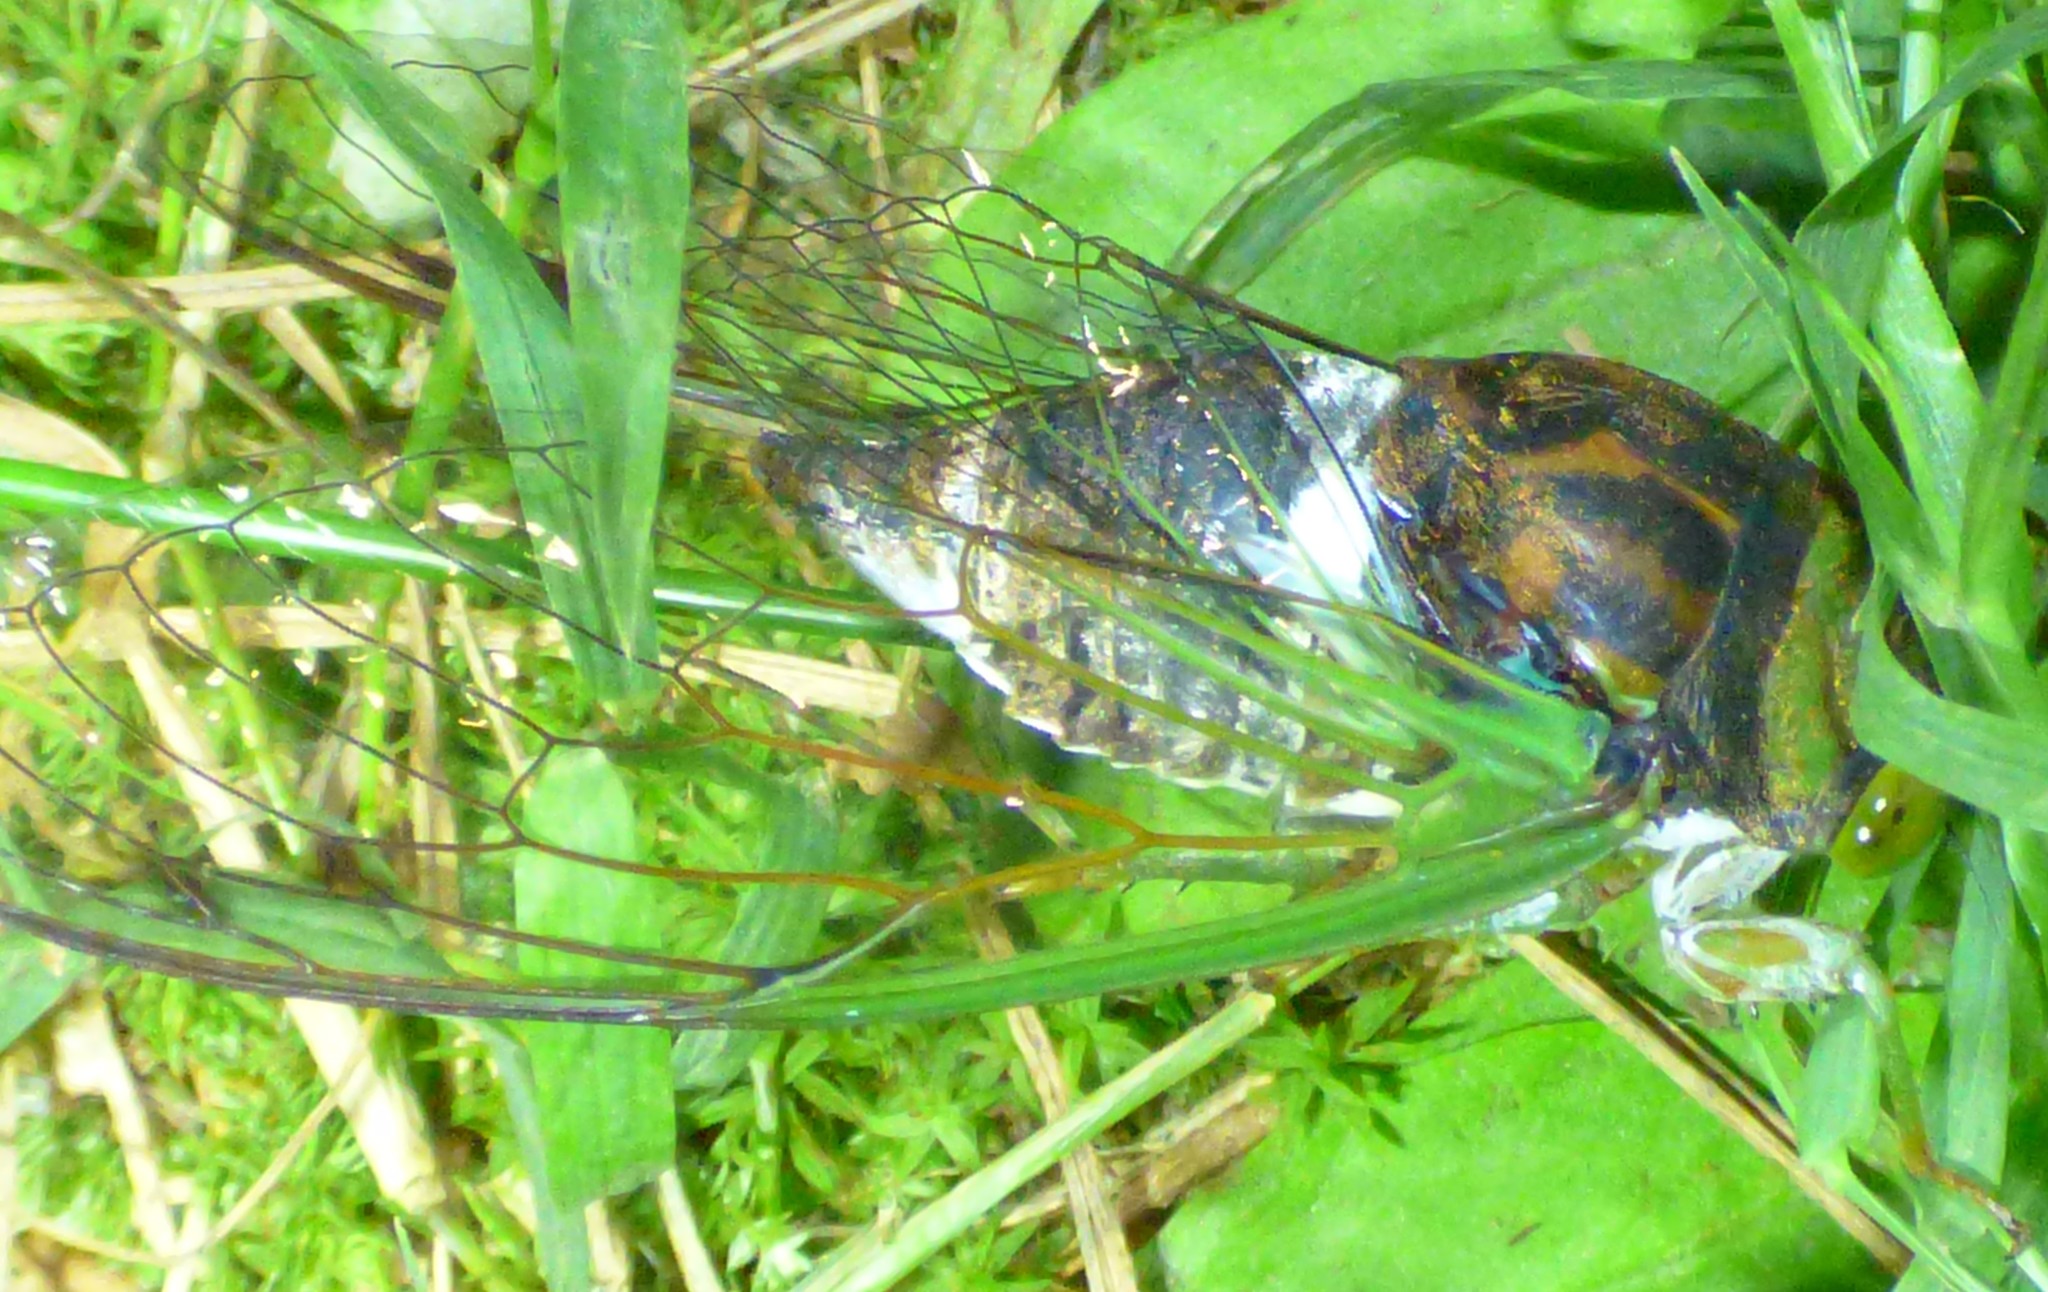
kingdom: Animalia
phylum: Arthropoda
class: Insecta
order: Hemiptera
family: Cicadidae
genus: Neotibicen
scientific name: Neotibicen tibicen
